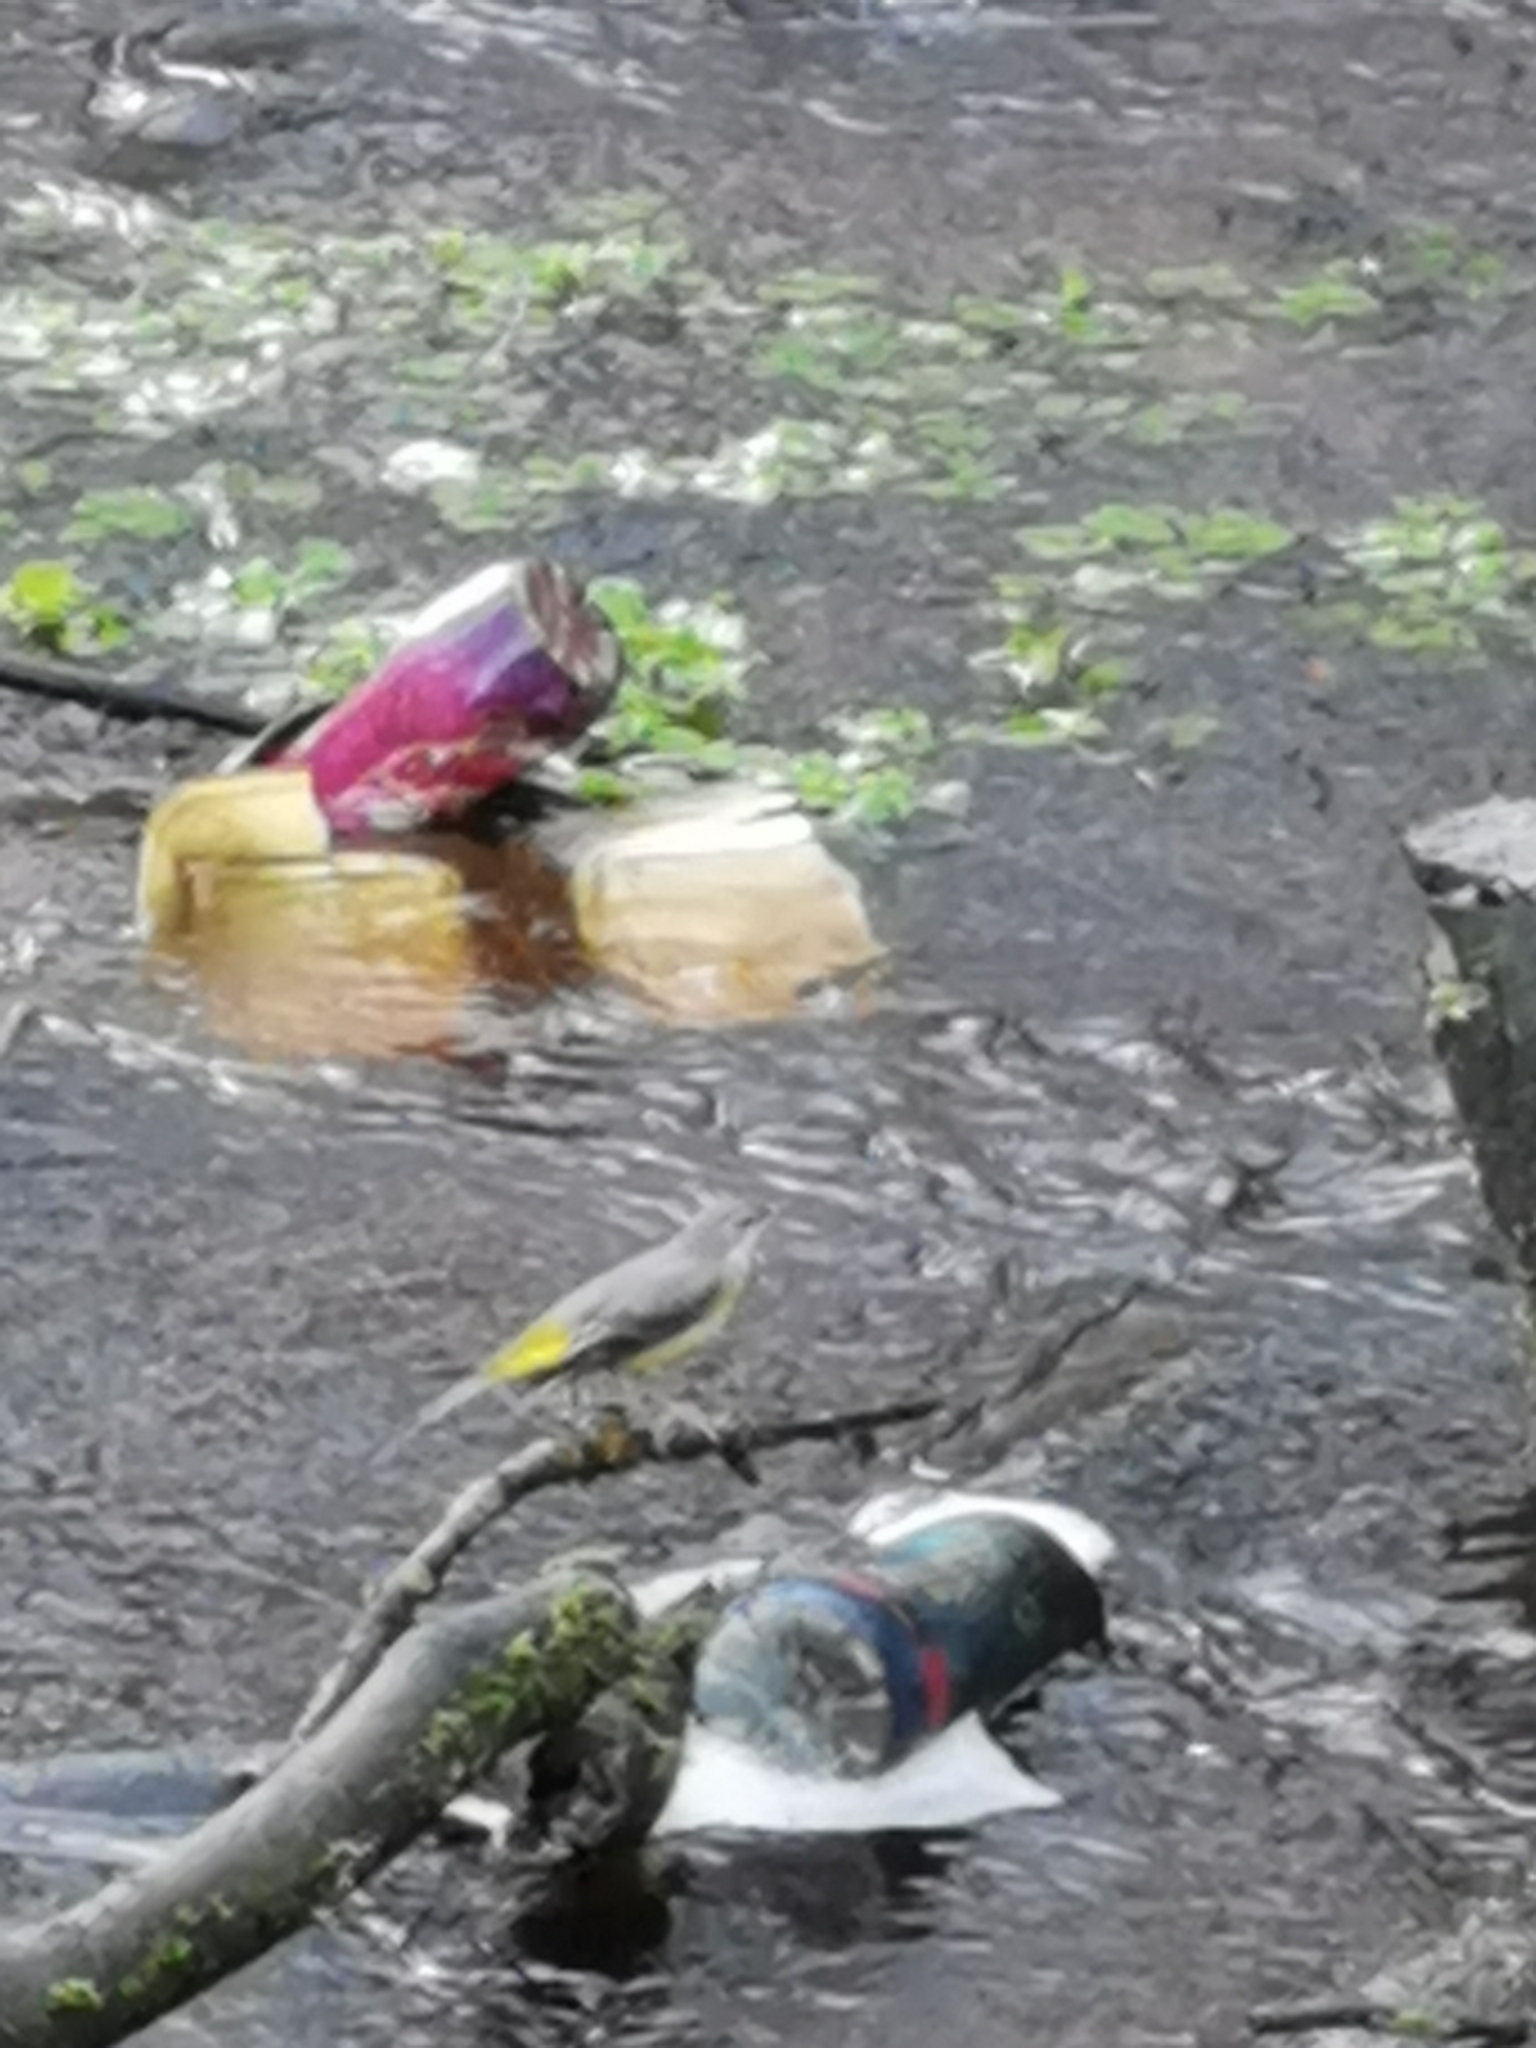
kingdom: Animalia
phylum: Chordata
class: Aves
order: Passeriformes
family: Motacillidae
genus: Motacilla
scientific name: Motacilla cinerea
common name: Grey wagtail
